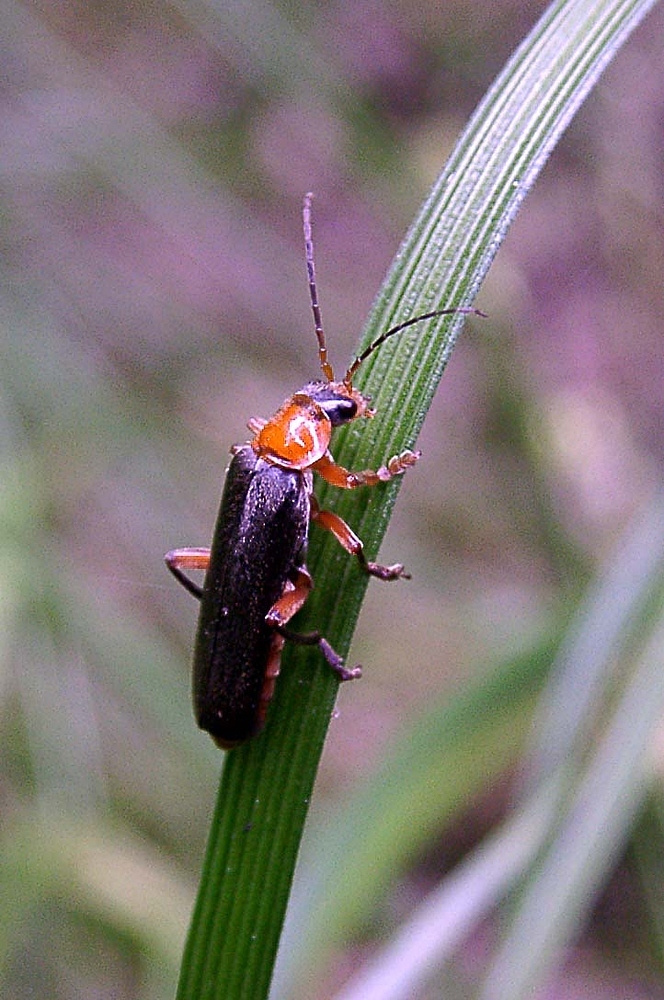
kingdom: Animalia
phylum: Arthropoda
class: Insecta
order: Coleoptera
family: Cantharidae
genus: Cantharis
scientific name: Cantharis pellucida
